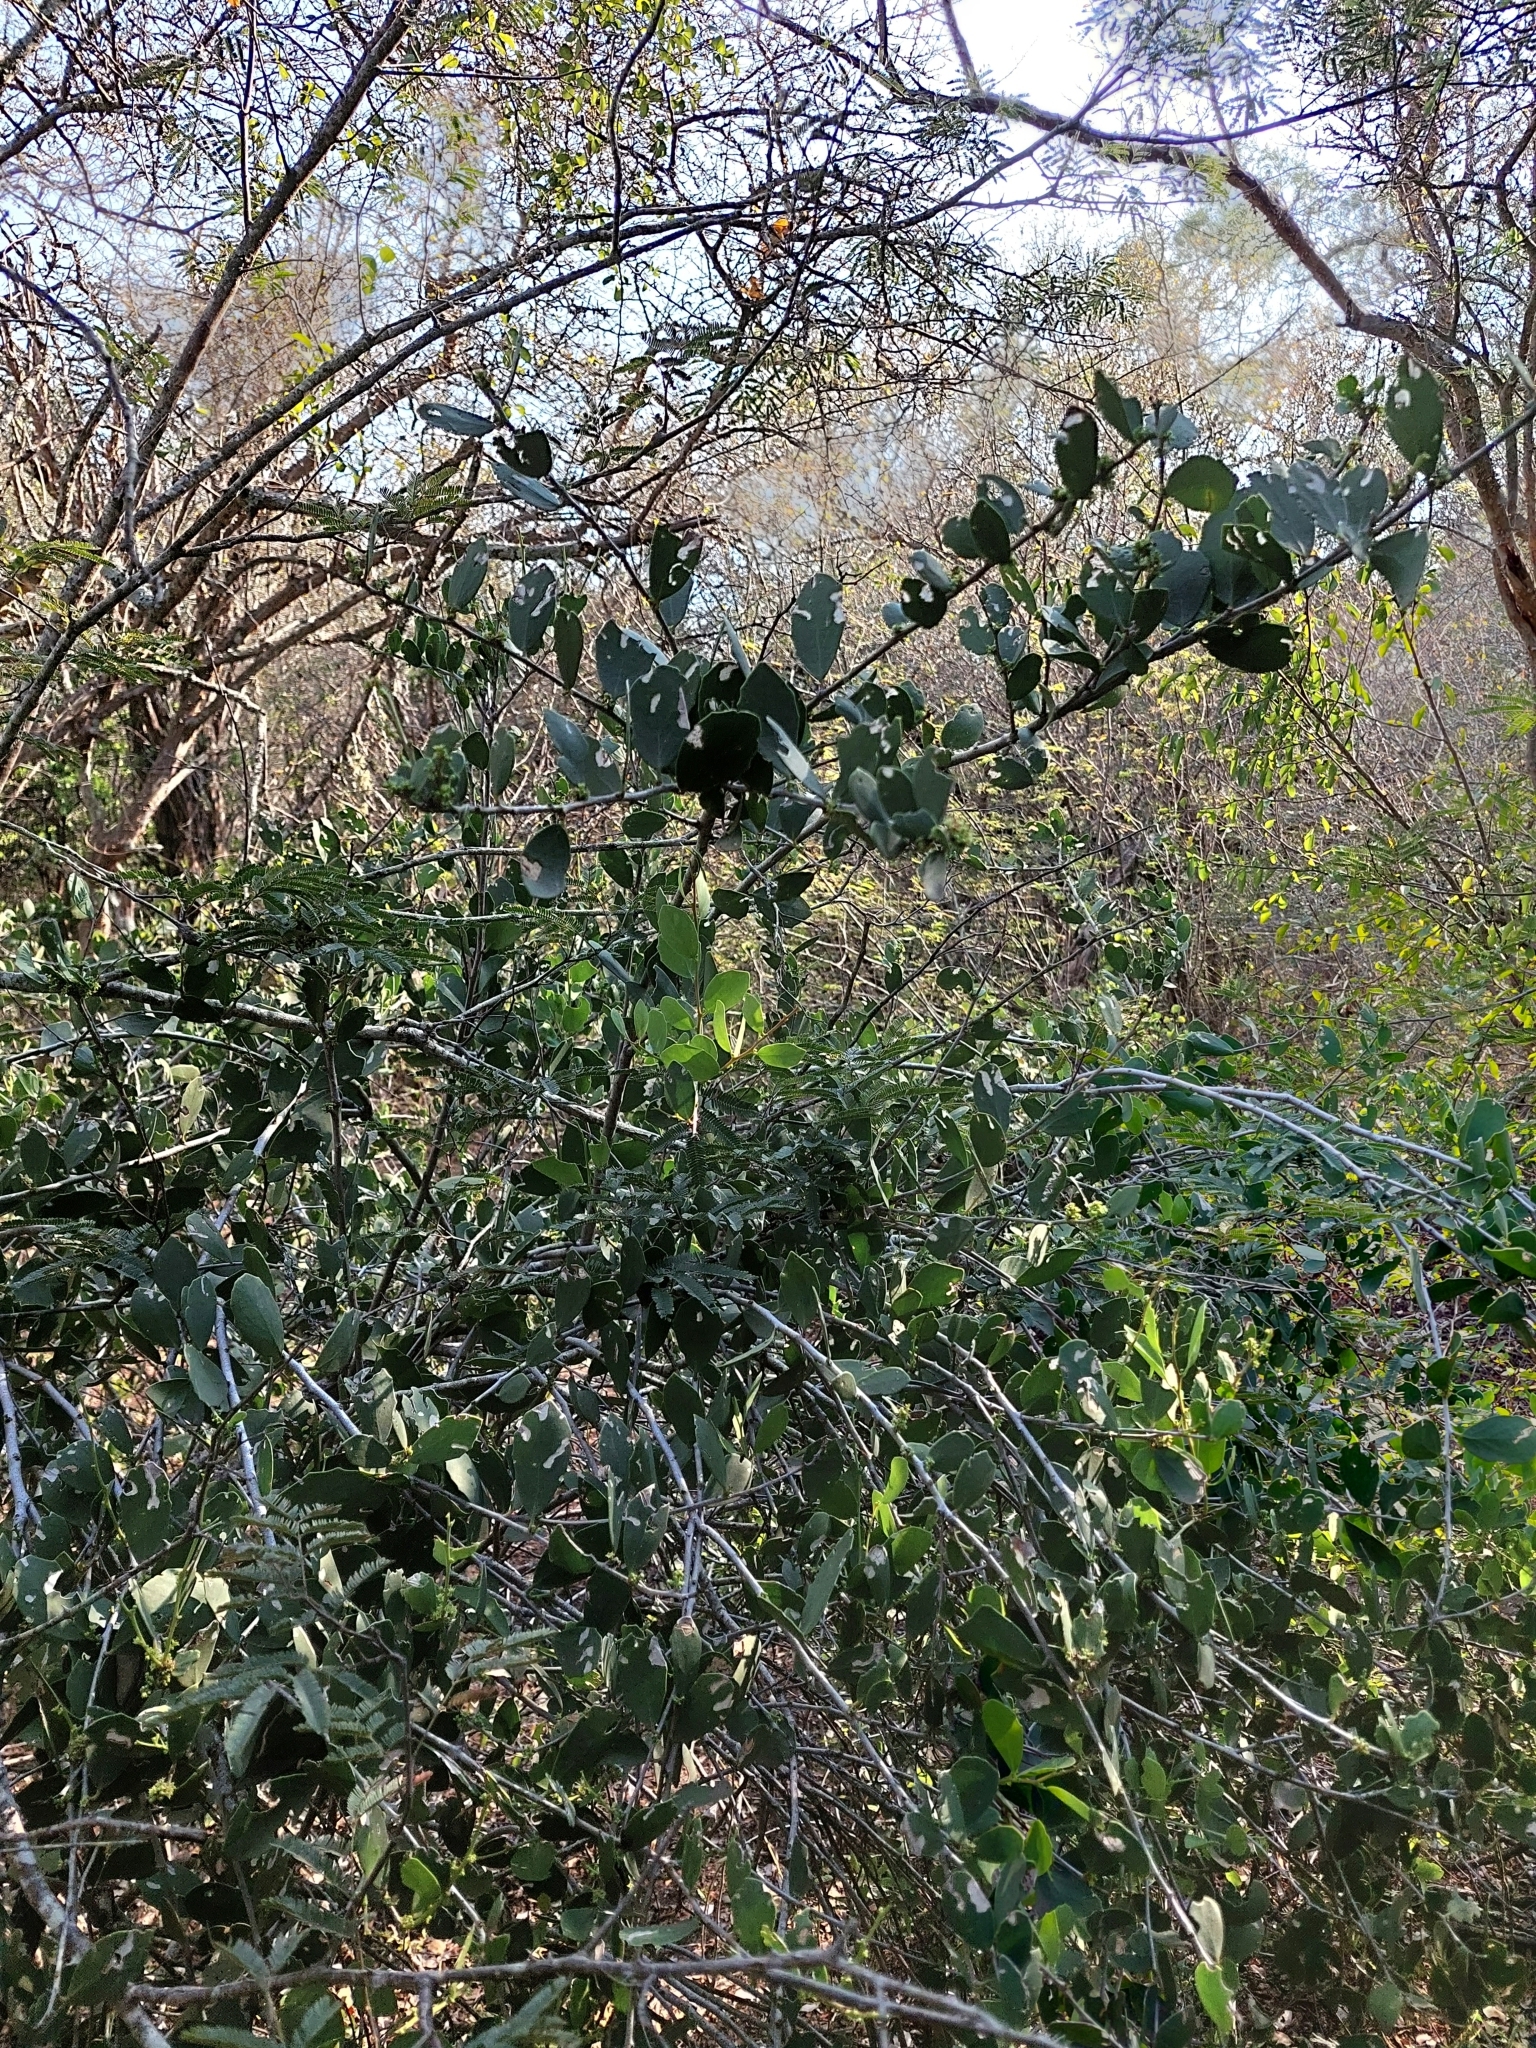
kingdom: Plantae
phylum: Tracheophyta
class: Magnoliopsida
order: Celastrales
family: Celastraceae
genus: Tricerma
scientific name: Tricerma vitis-idaeum
